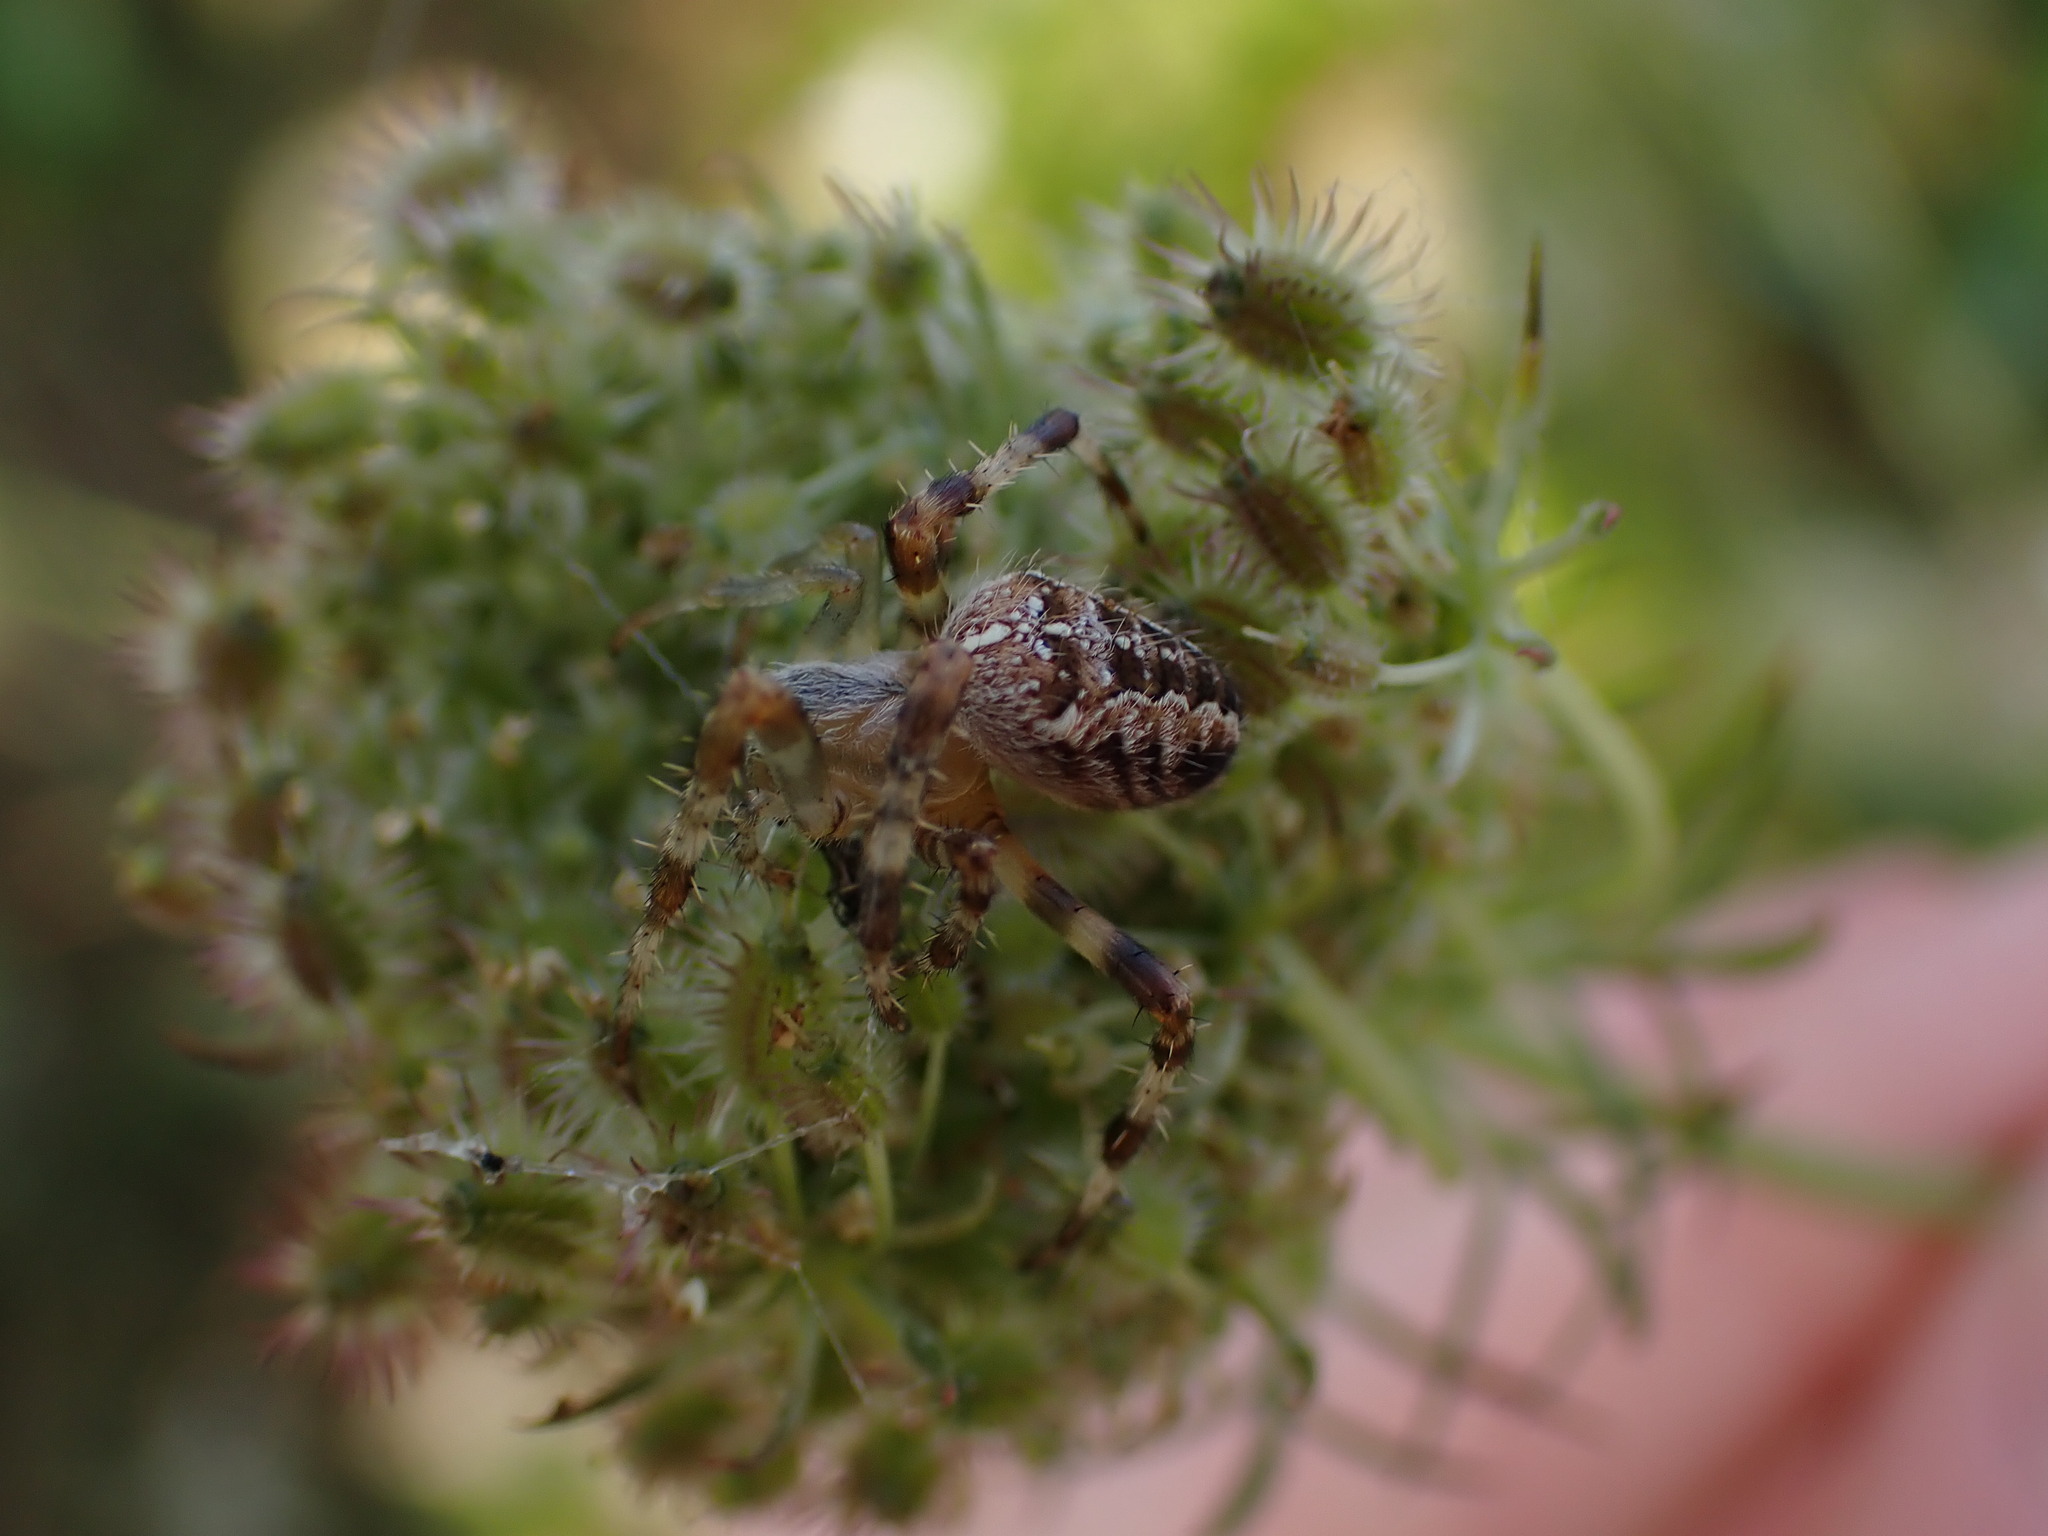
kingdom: Animalia
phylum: Arthropoda
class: Arachnida
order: Araneae
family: Araneidae
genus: Araneus
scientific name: Araneus diadematus
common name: Cross orbweaver
